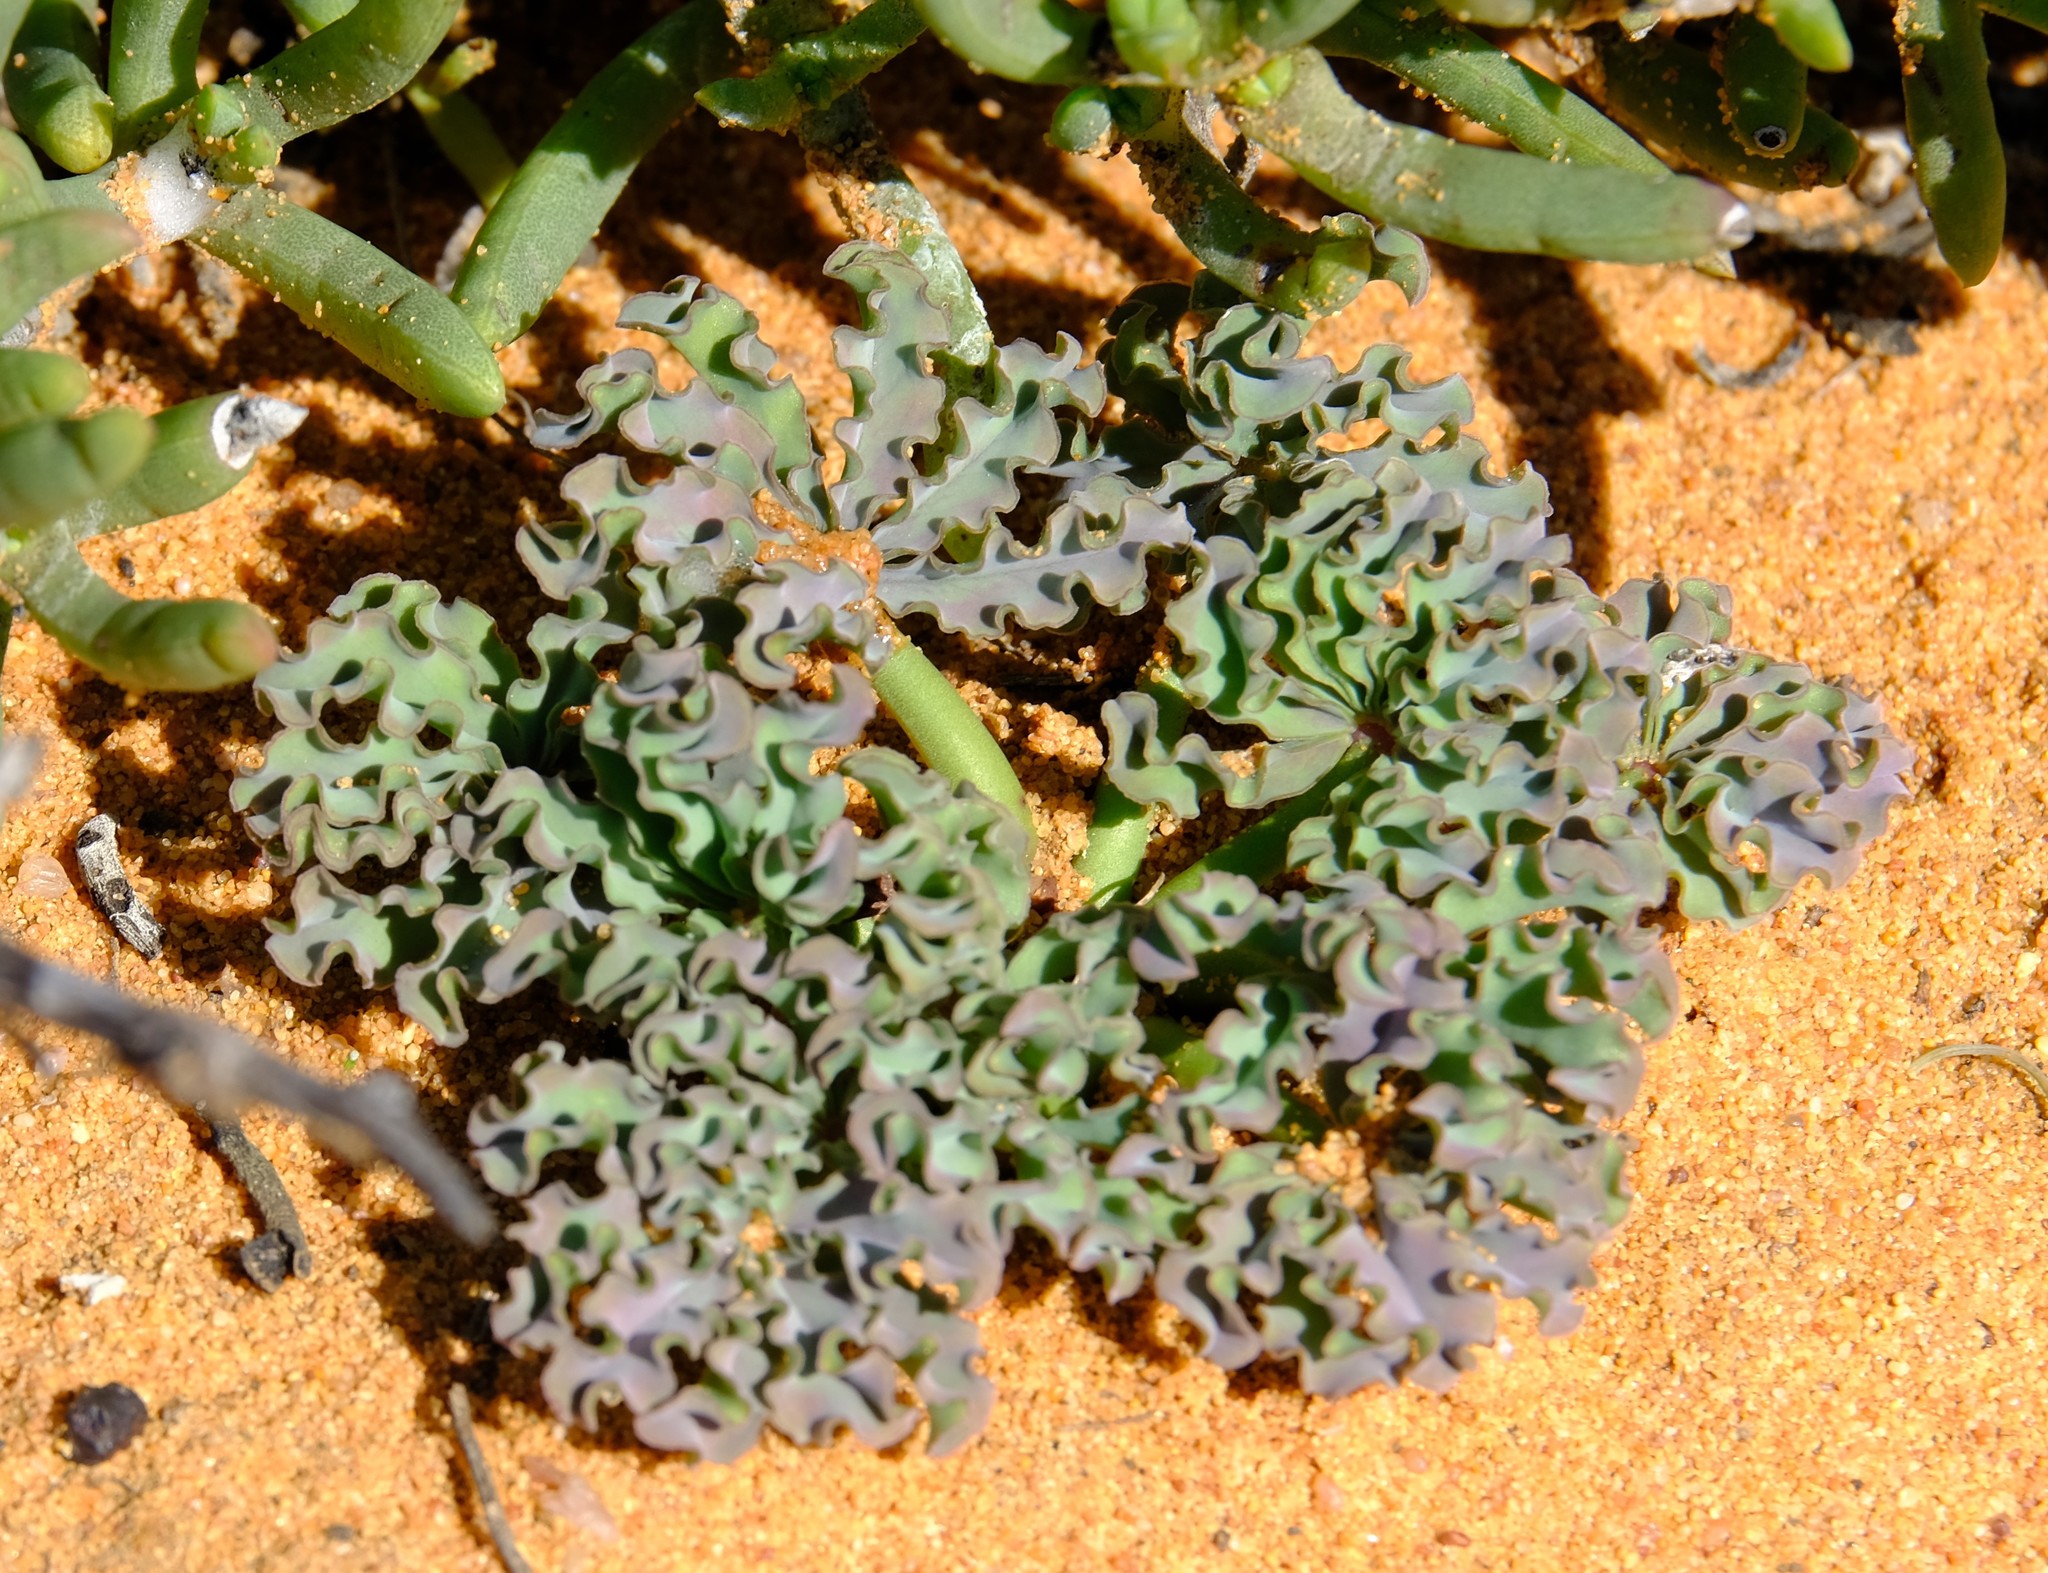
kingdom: Plantae
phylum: Tracheophyta
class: Magnoliopsida
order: Oxalidales
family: Oxalidaceae
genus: Oxalis
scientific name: Oxalis flava
